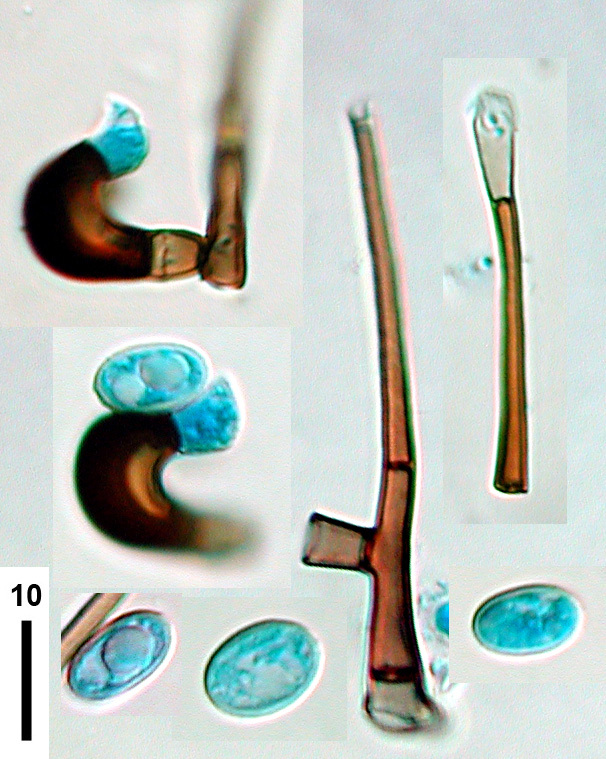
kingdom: Fungi
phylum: Ascomycota
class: Sordariomycetes
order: Xylariales
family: Zygosporiaceae
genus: Zygosporium
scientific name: Zygosporium oscheoides
